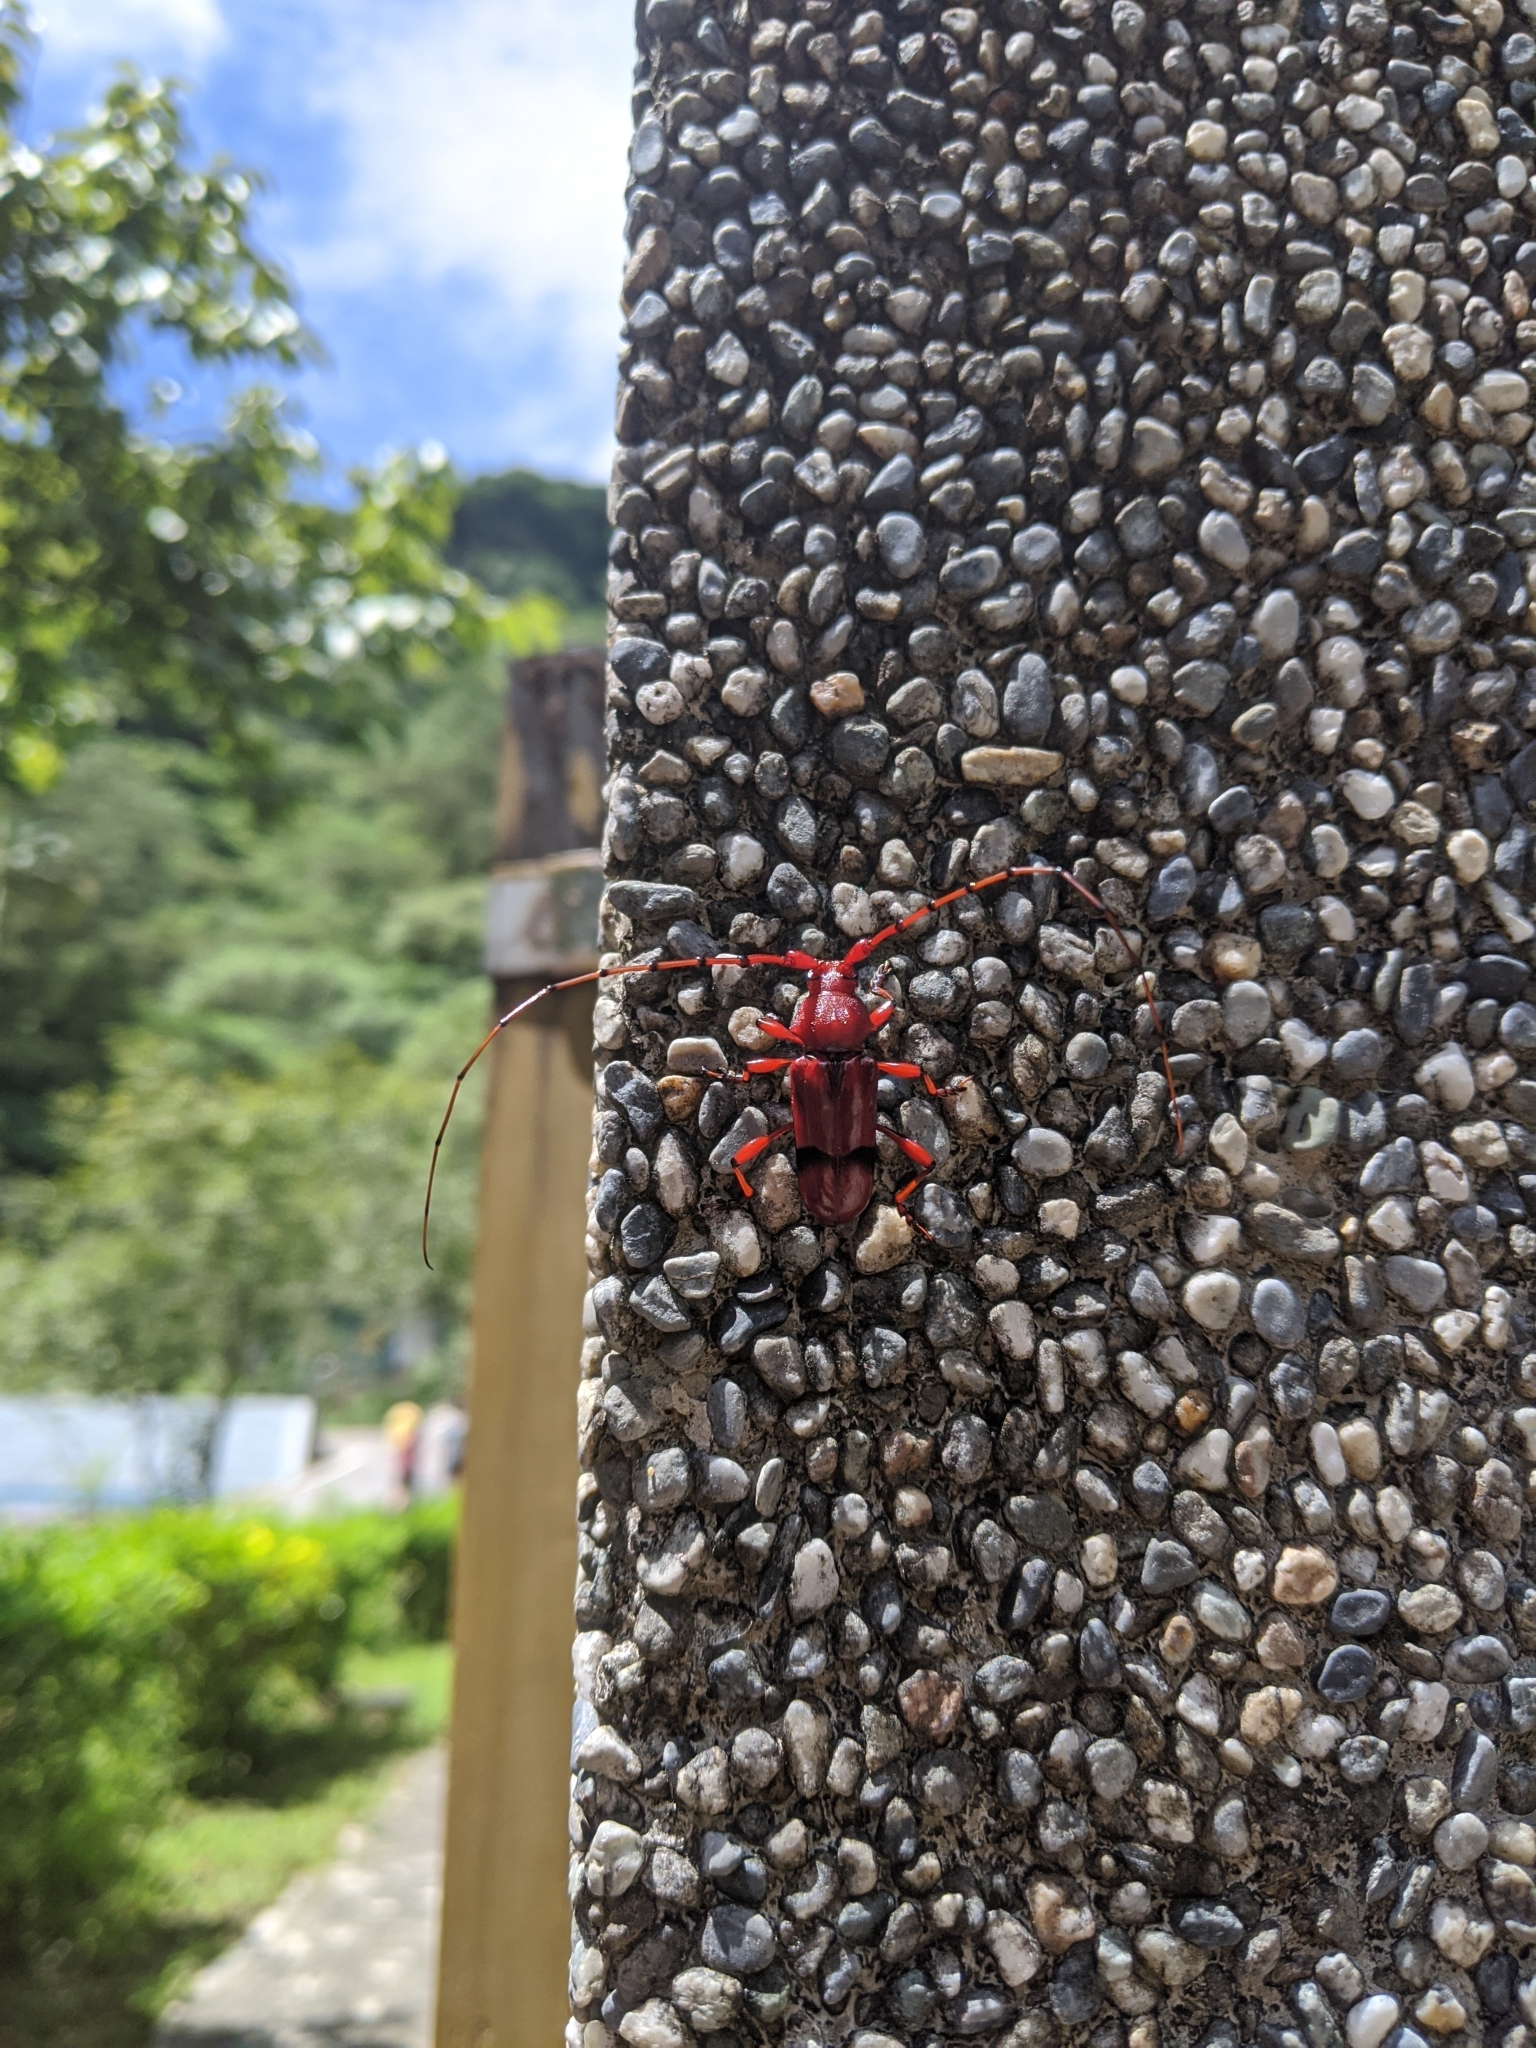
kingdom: Animalia
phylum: Arthropoda
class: Insecta
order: Coleoptera
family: Cerambycidae
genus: Dicelosternus
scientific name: Dicelosternus corallinus
